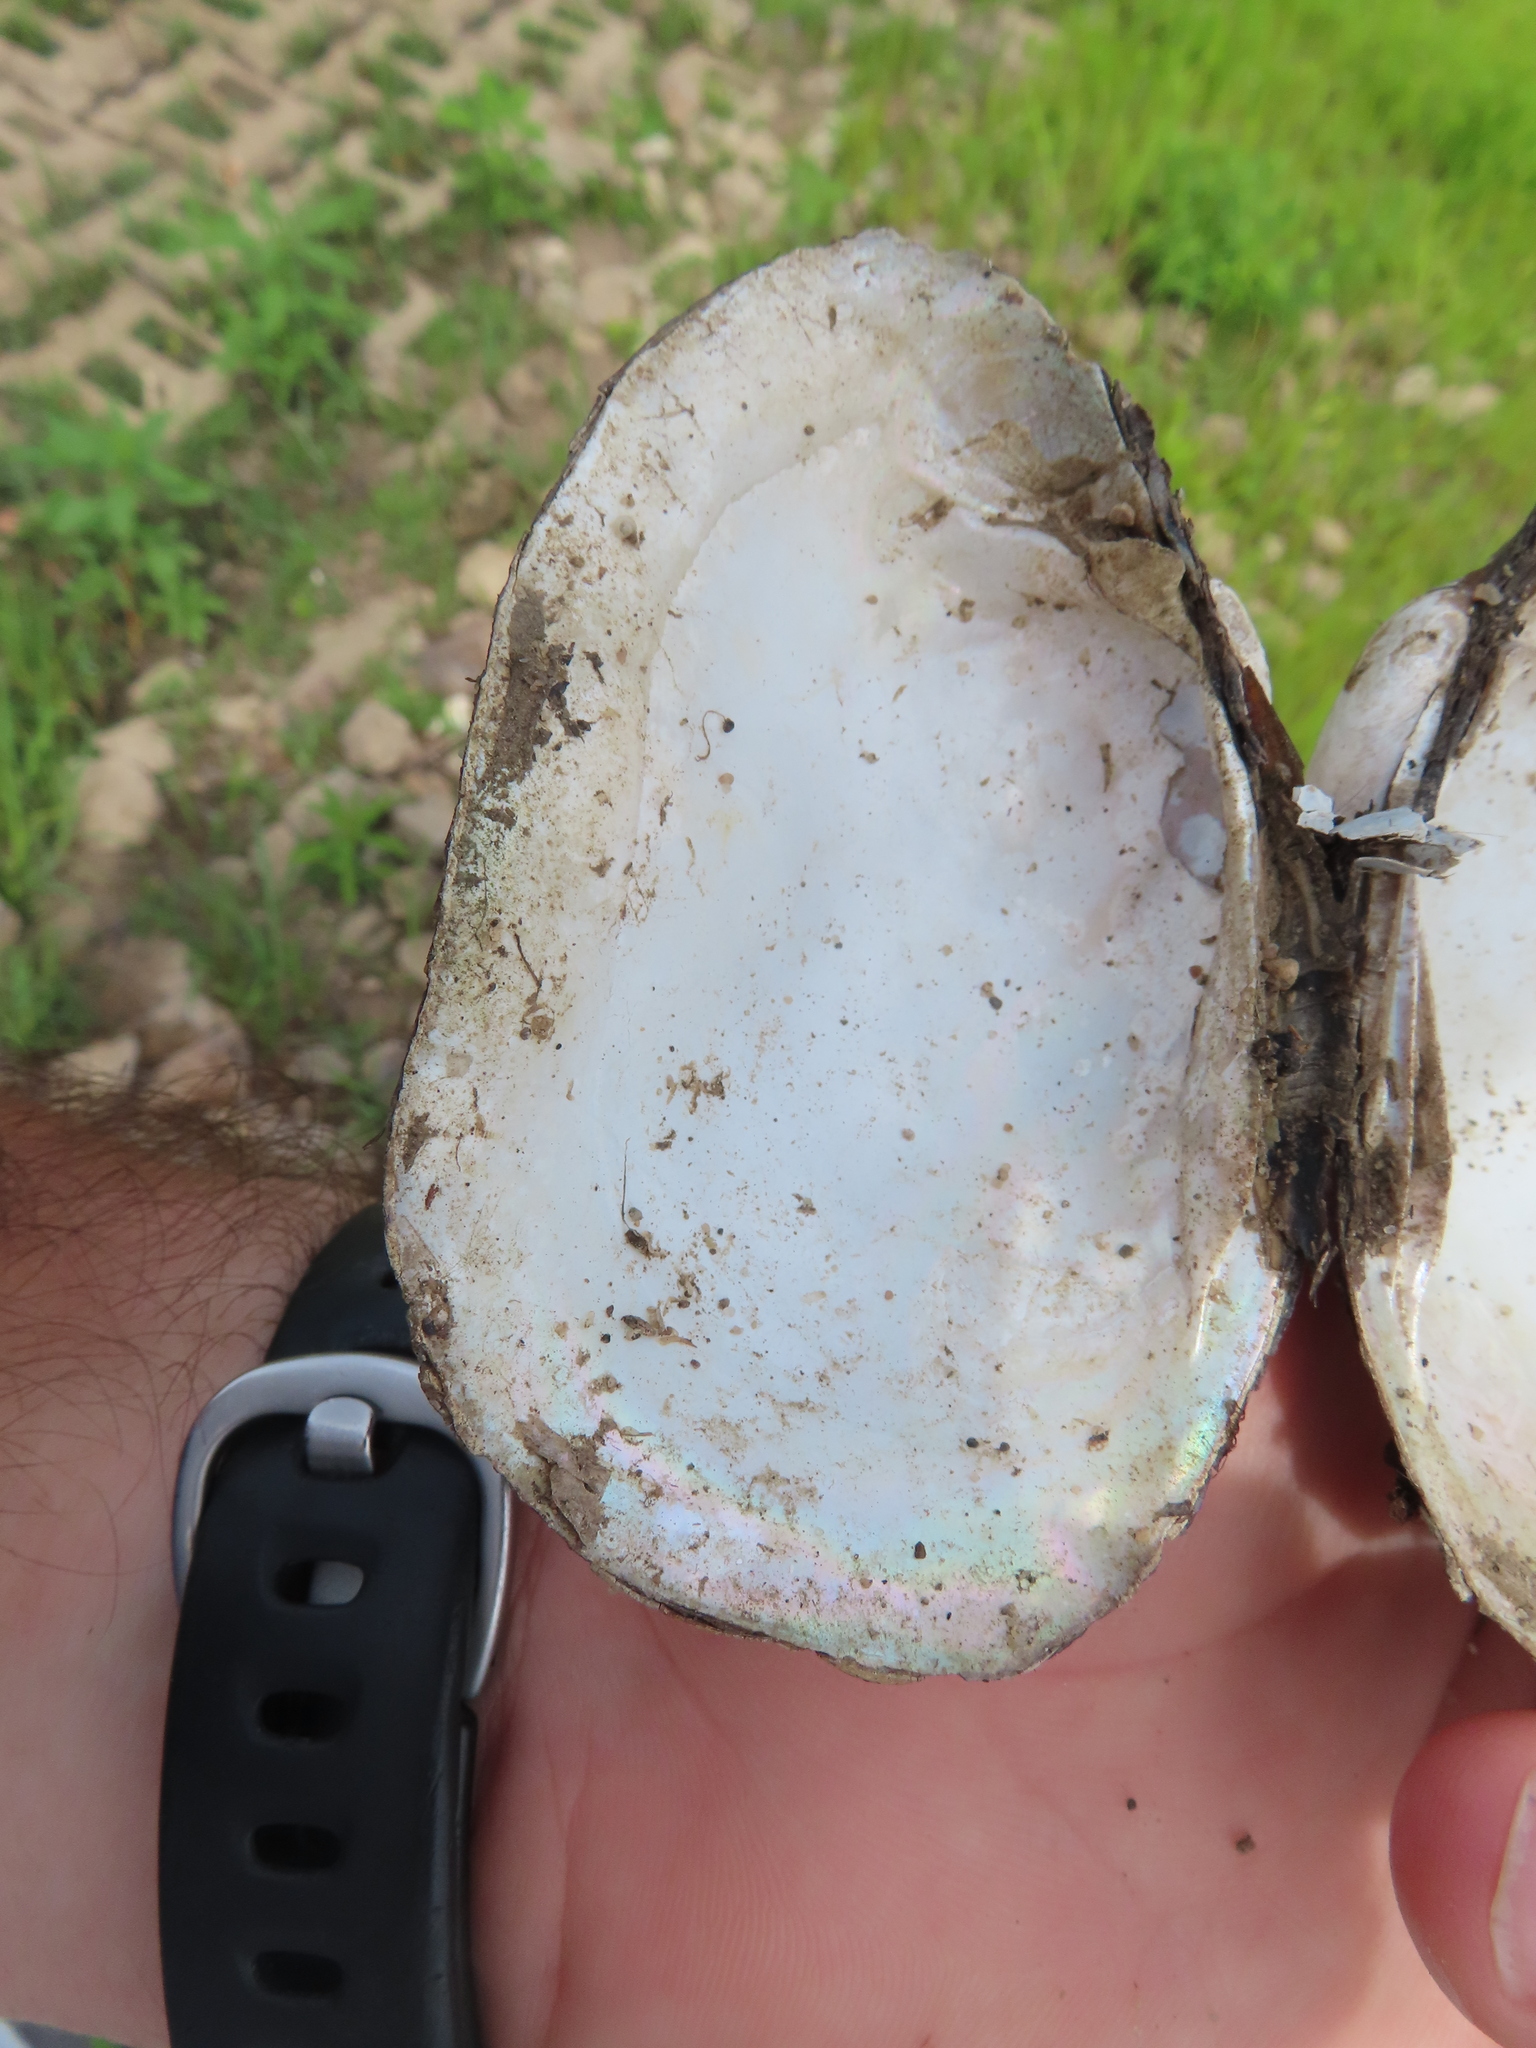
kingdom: Animalia
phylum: Mollusca
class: Bivalvia
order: Unionida
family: Unionidae
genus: Lampsilis
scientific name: Lampsilis siliquoidea
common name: Fatmucket
